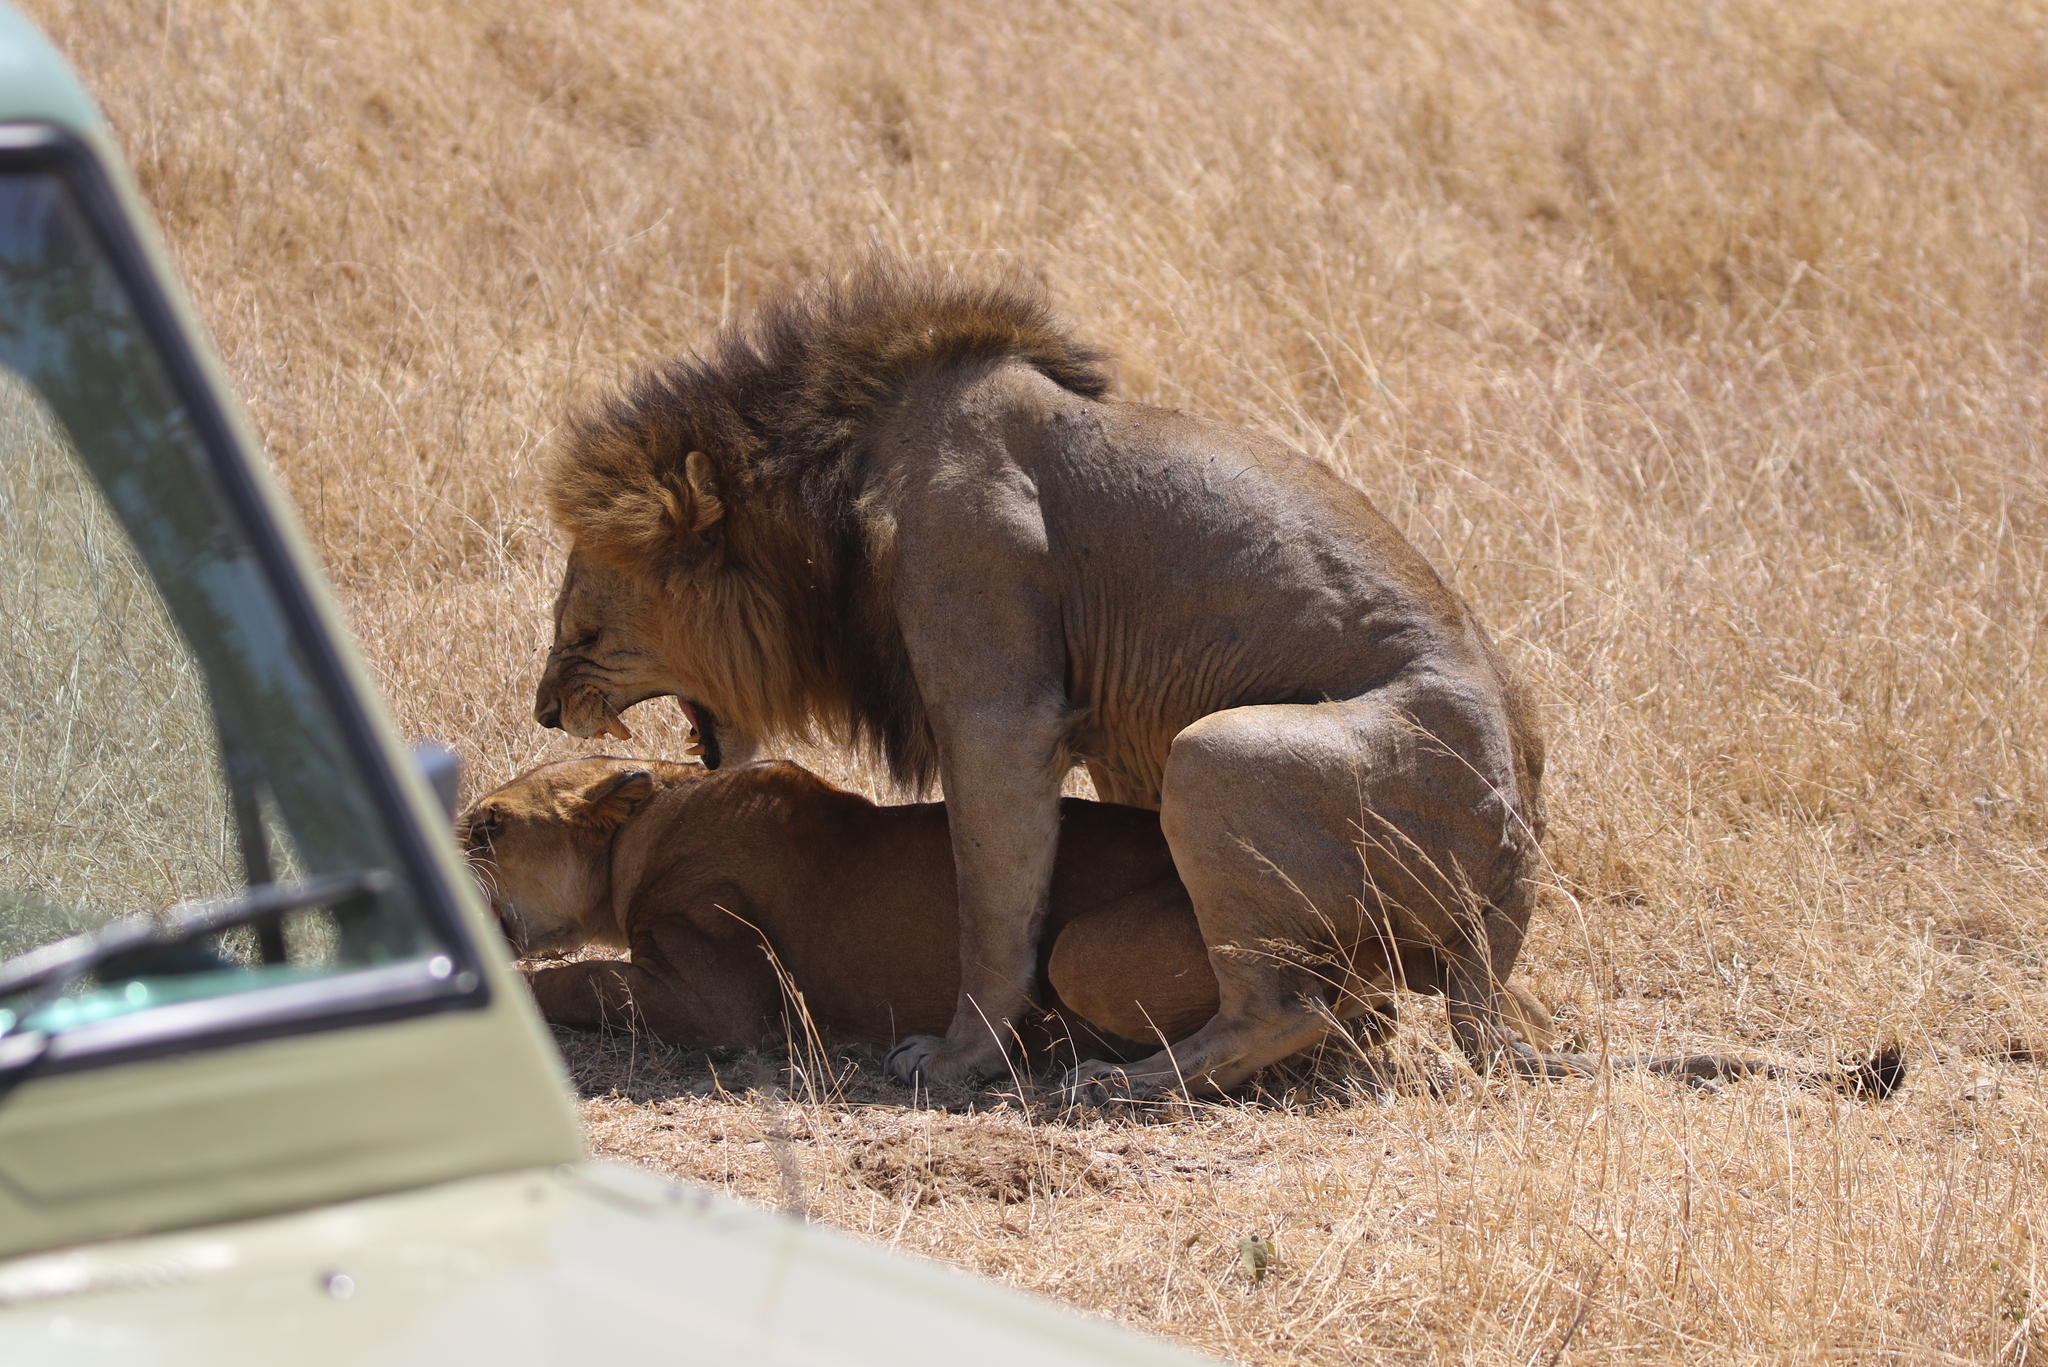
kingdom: Animalia
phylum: Chordata
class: Mammalia
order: Carnivora
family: Felidae
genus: Panthera
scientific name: Panthera leo
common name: Lion
